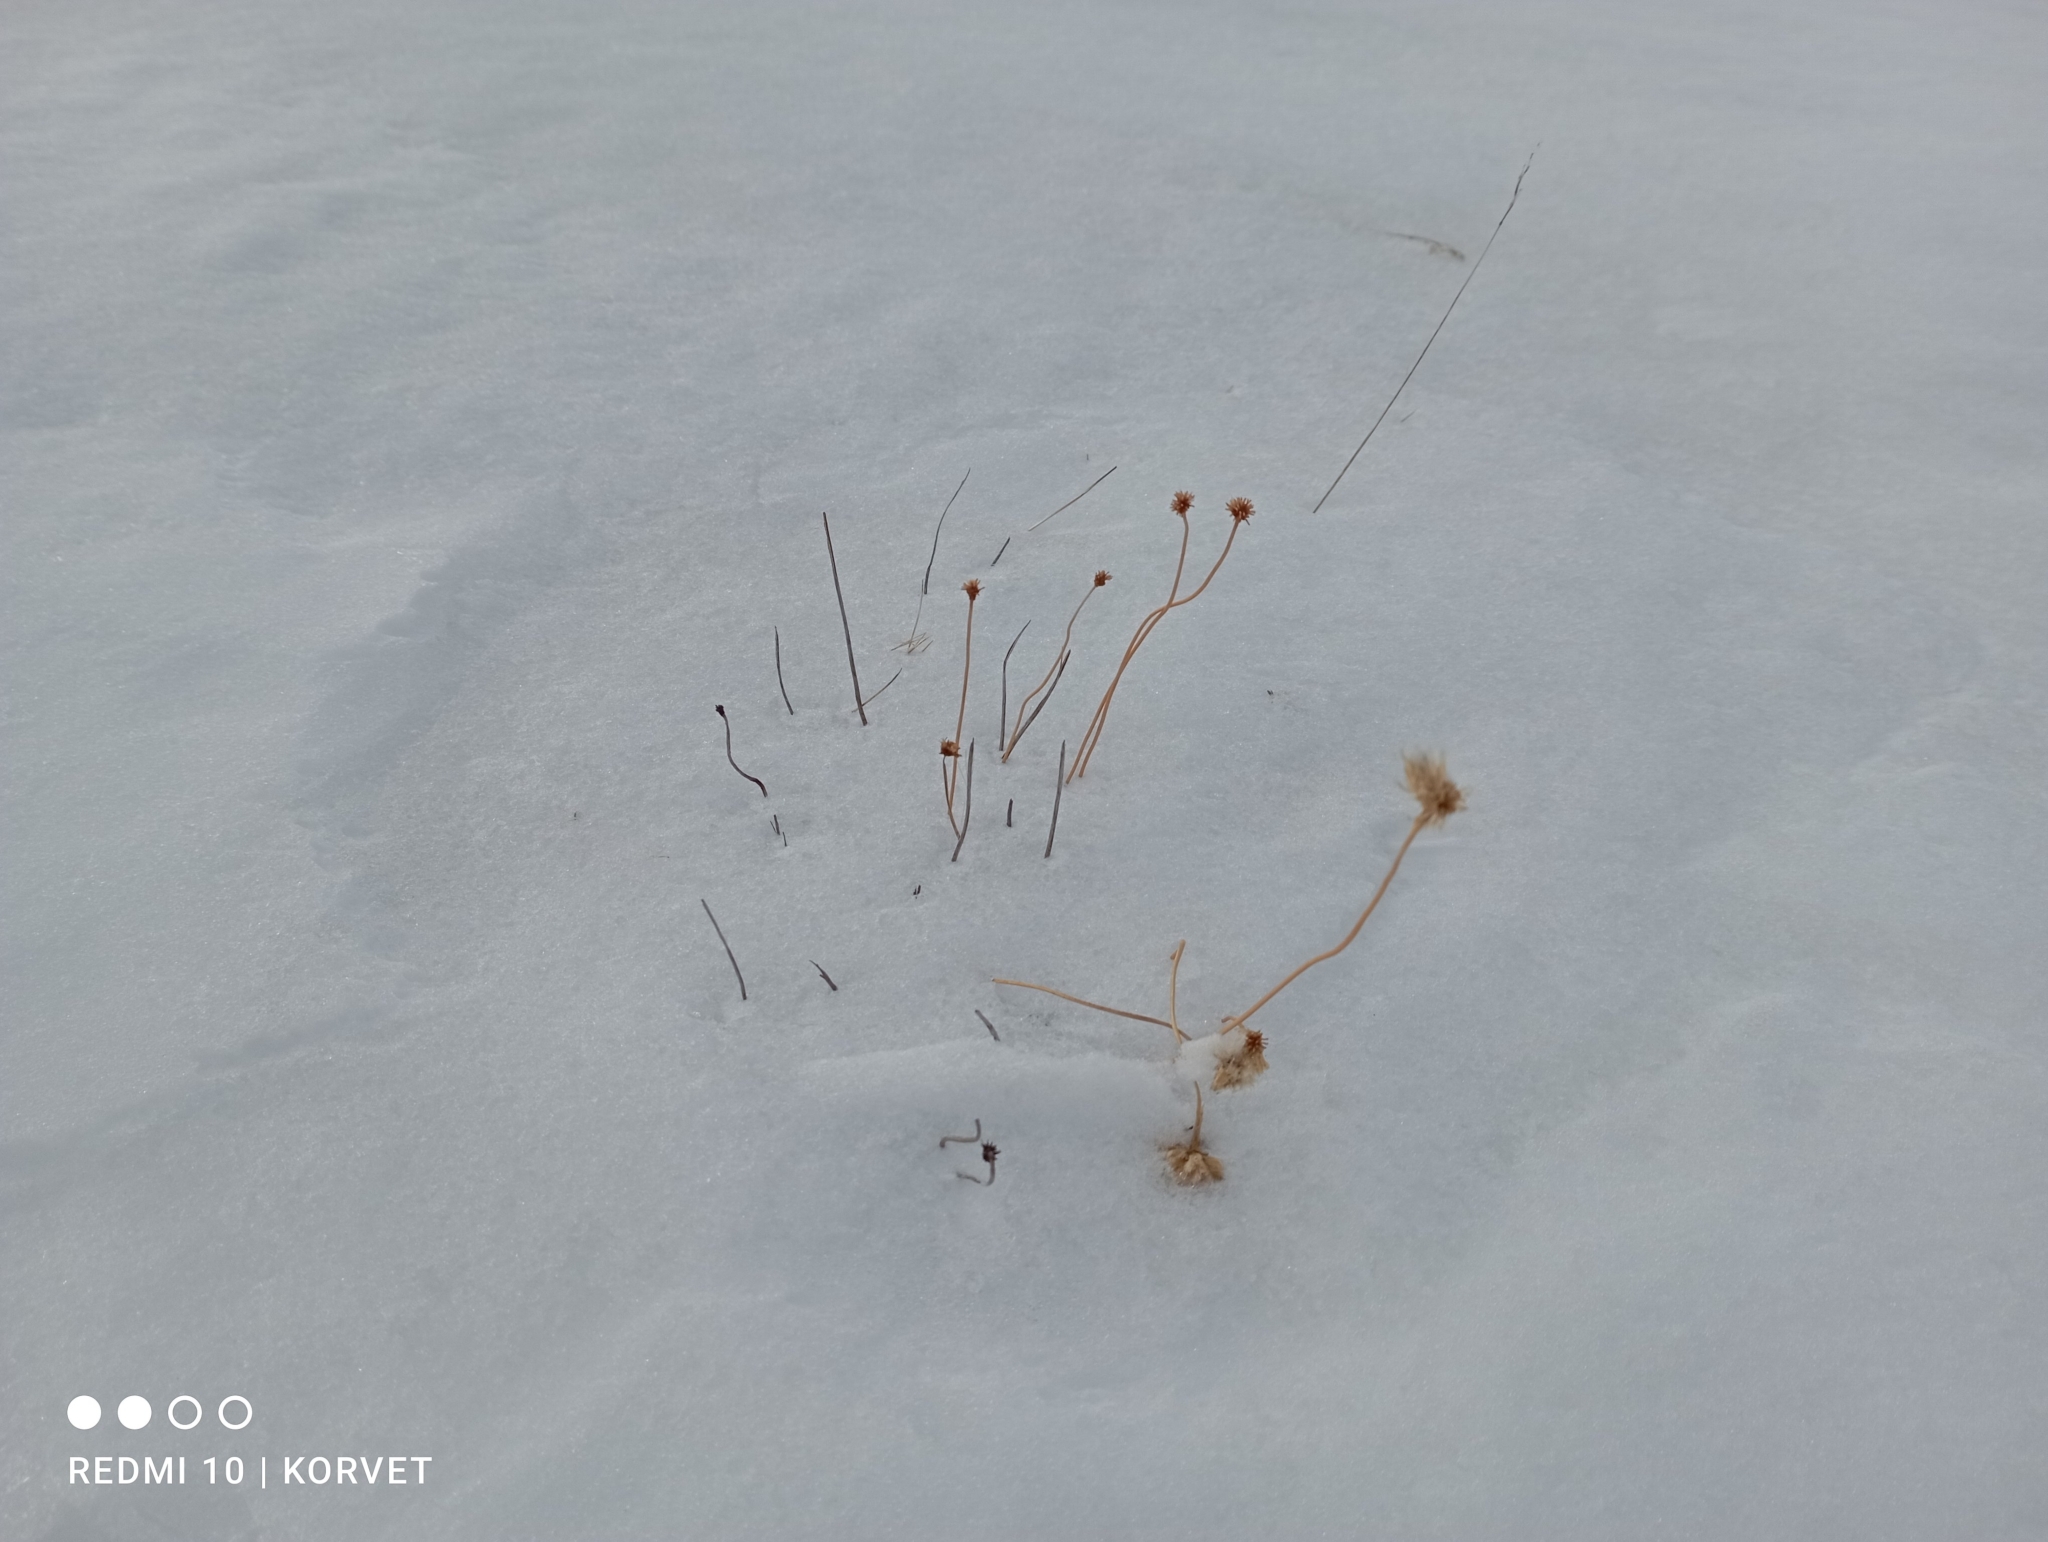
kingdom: Plantae
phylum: Tracheophyta
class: Magnoliopsida
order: Caryophyllales
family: Plumbaginaceae
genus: Armeria
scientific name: Armeria maritima
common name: Thrift
